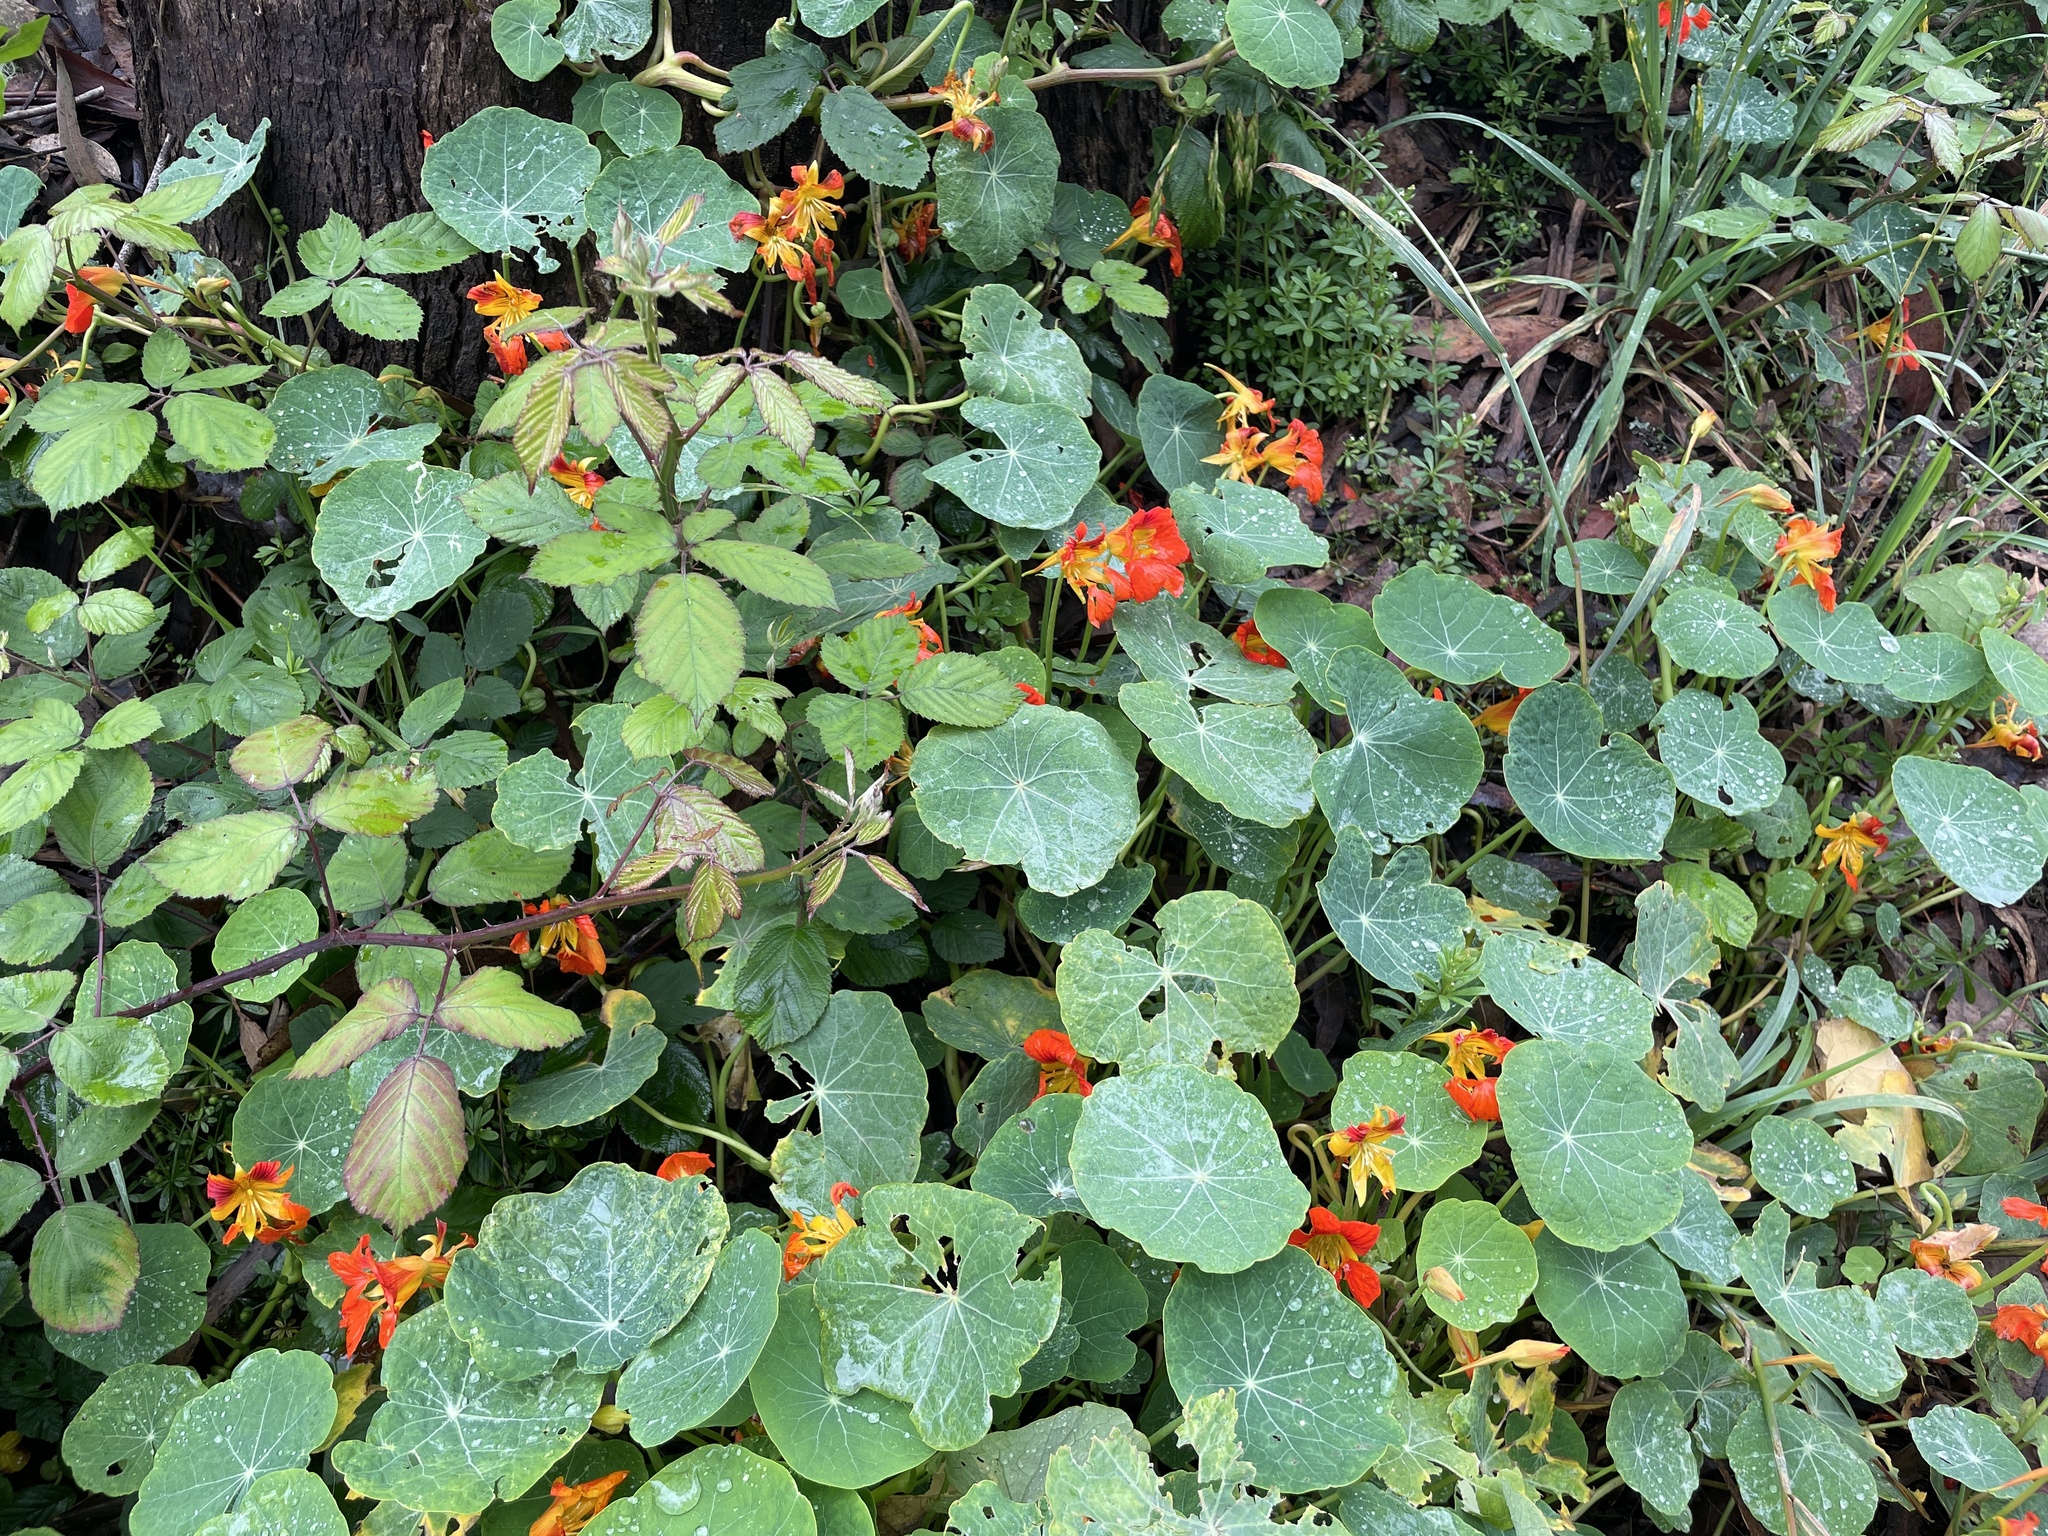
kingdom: Plantae
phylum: Tracheophyta
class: Magnoliopsida
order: Brassicales
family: Tropaeolaceae
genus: Tropaeolum
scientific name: Tropaeolum majus
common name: Nasturtium
